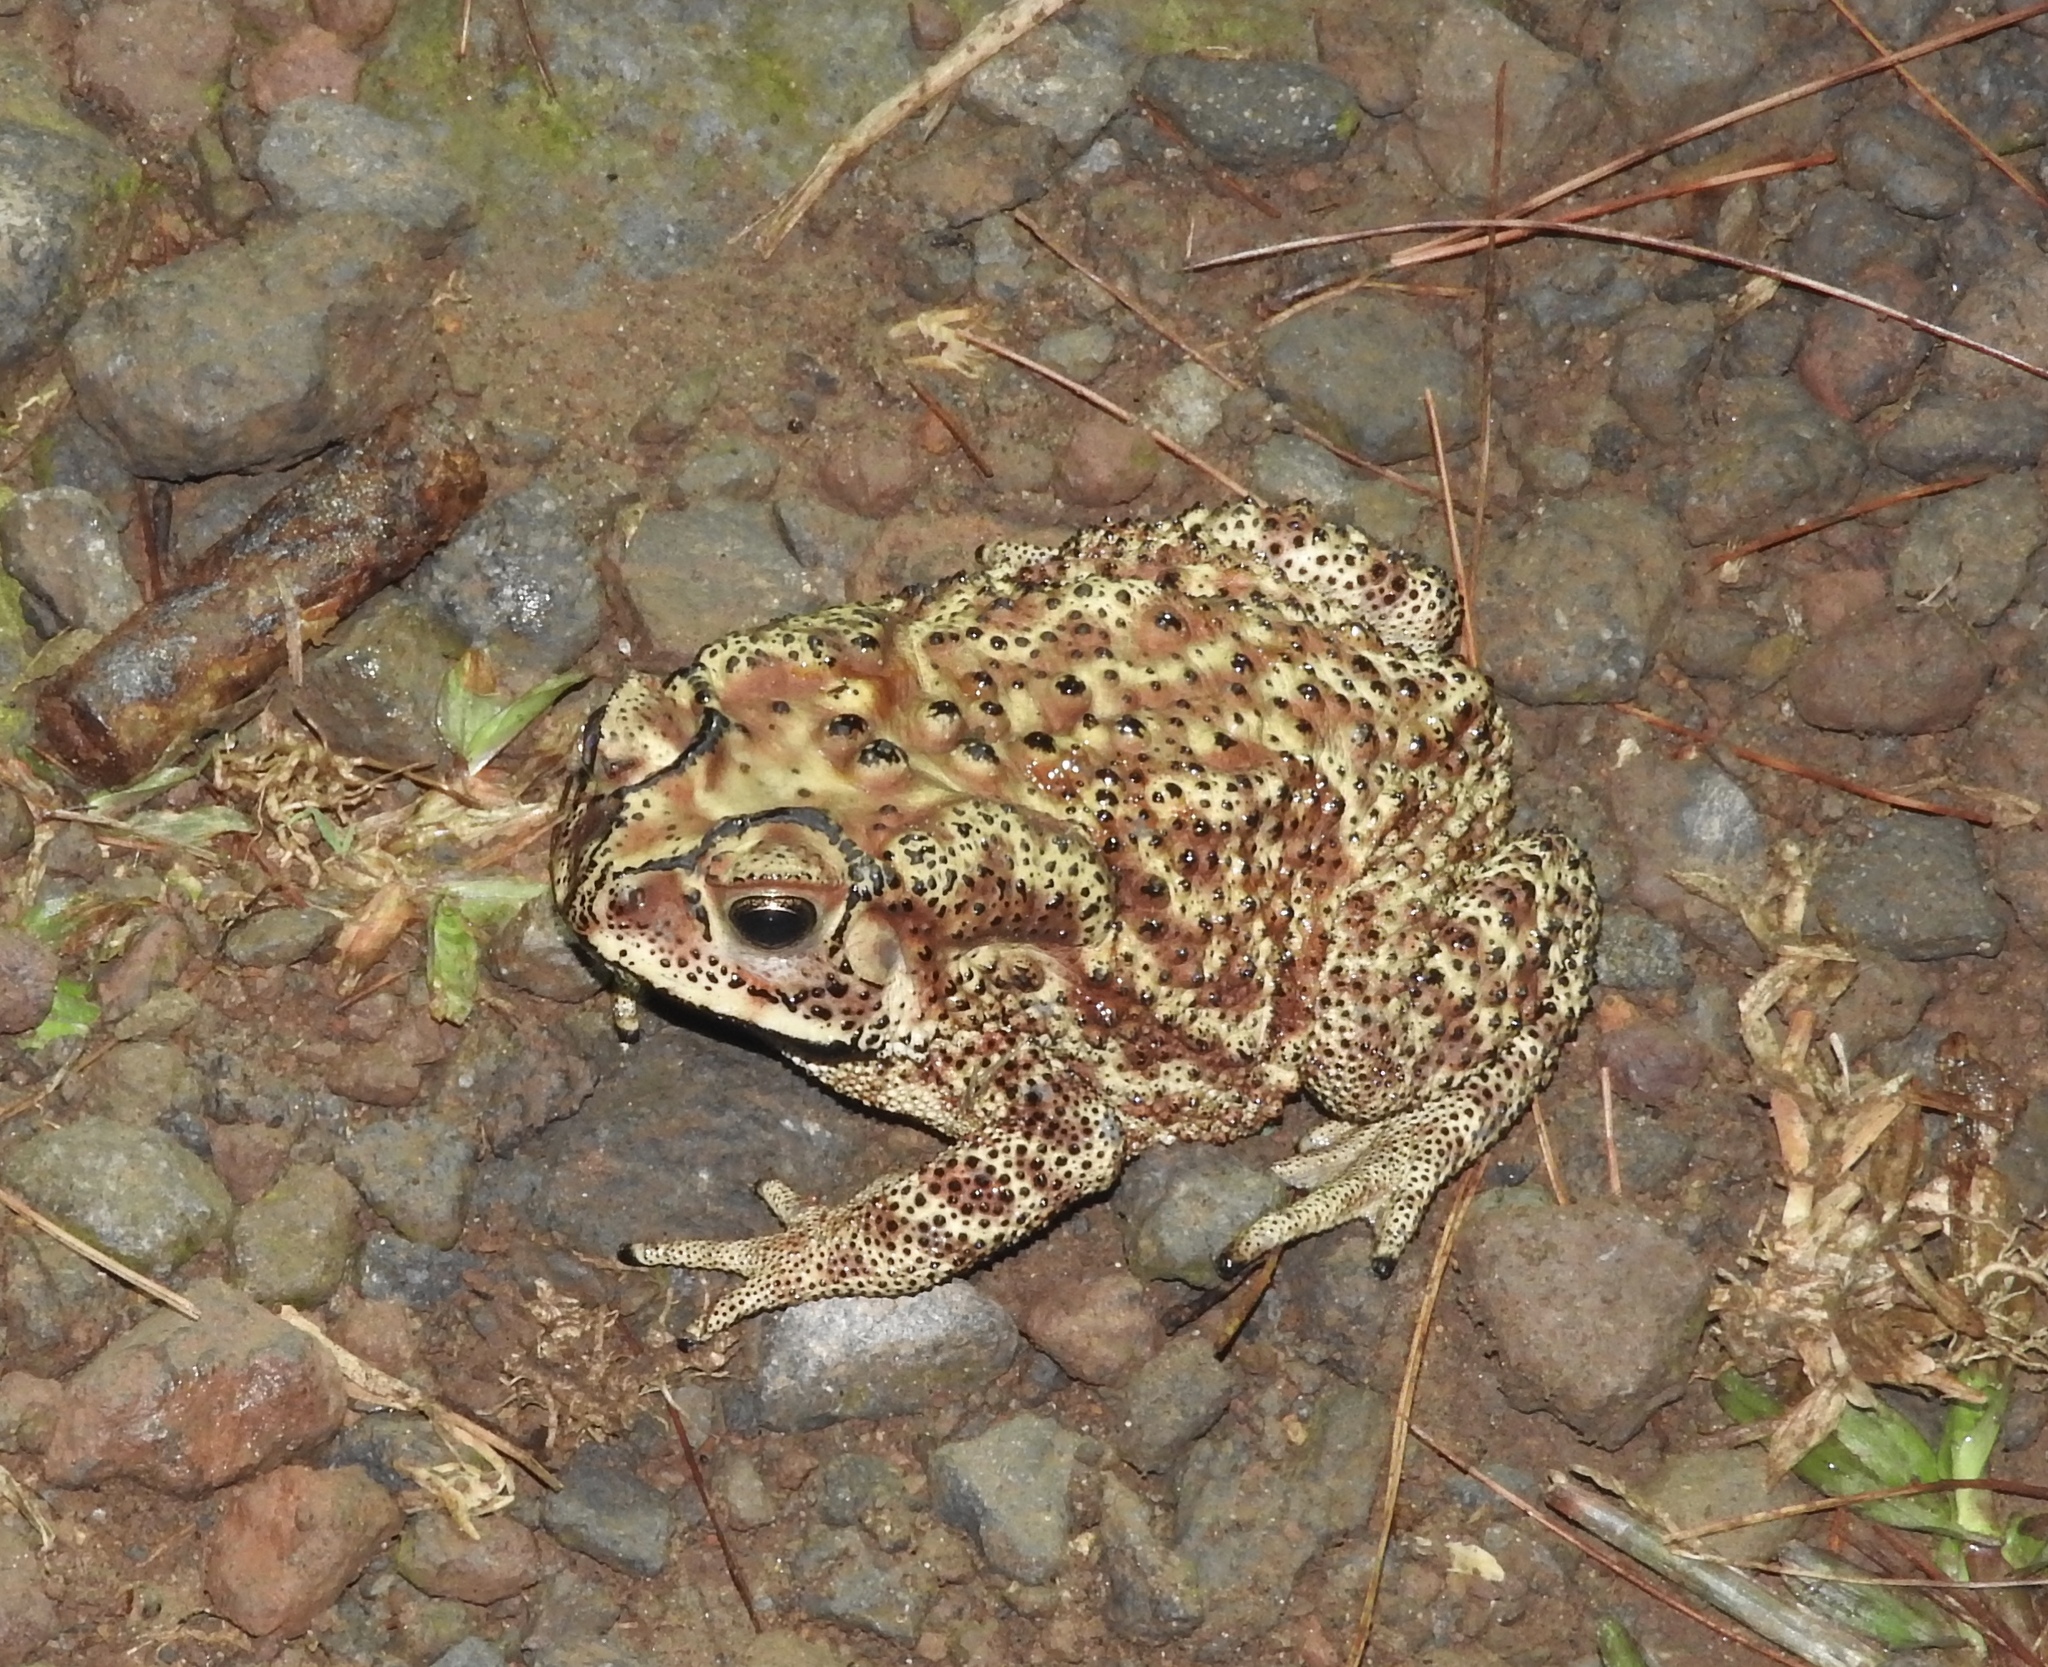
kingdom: Animalia
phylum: Chordata
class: Amphibia
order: Anura
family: Bufonidae
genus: Duttaphrynus
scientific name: Duttaphrynus melanostictus
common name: Common sunda toad
